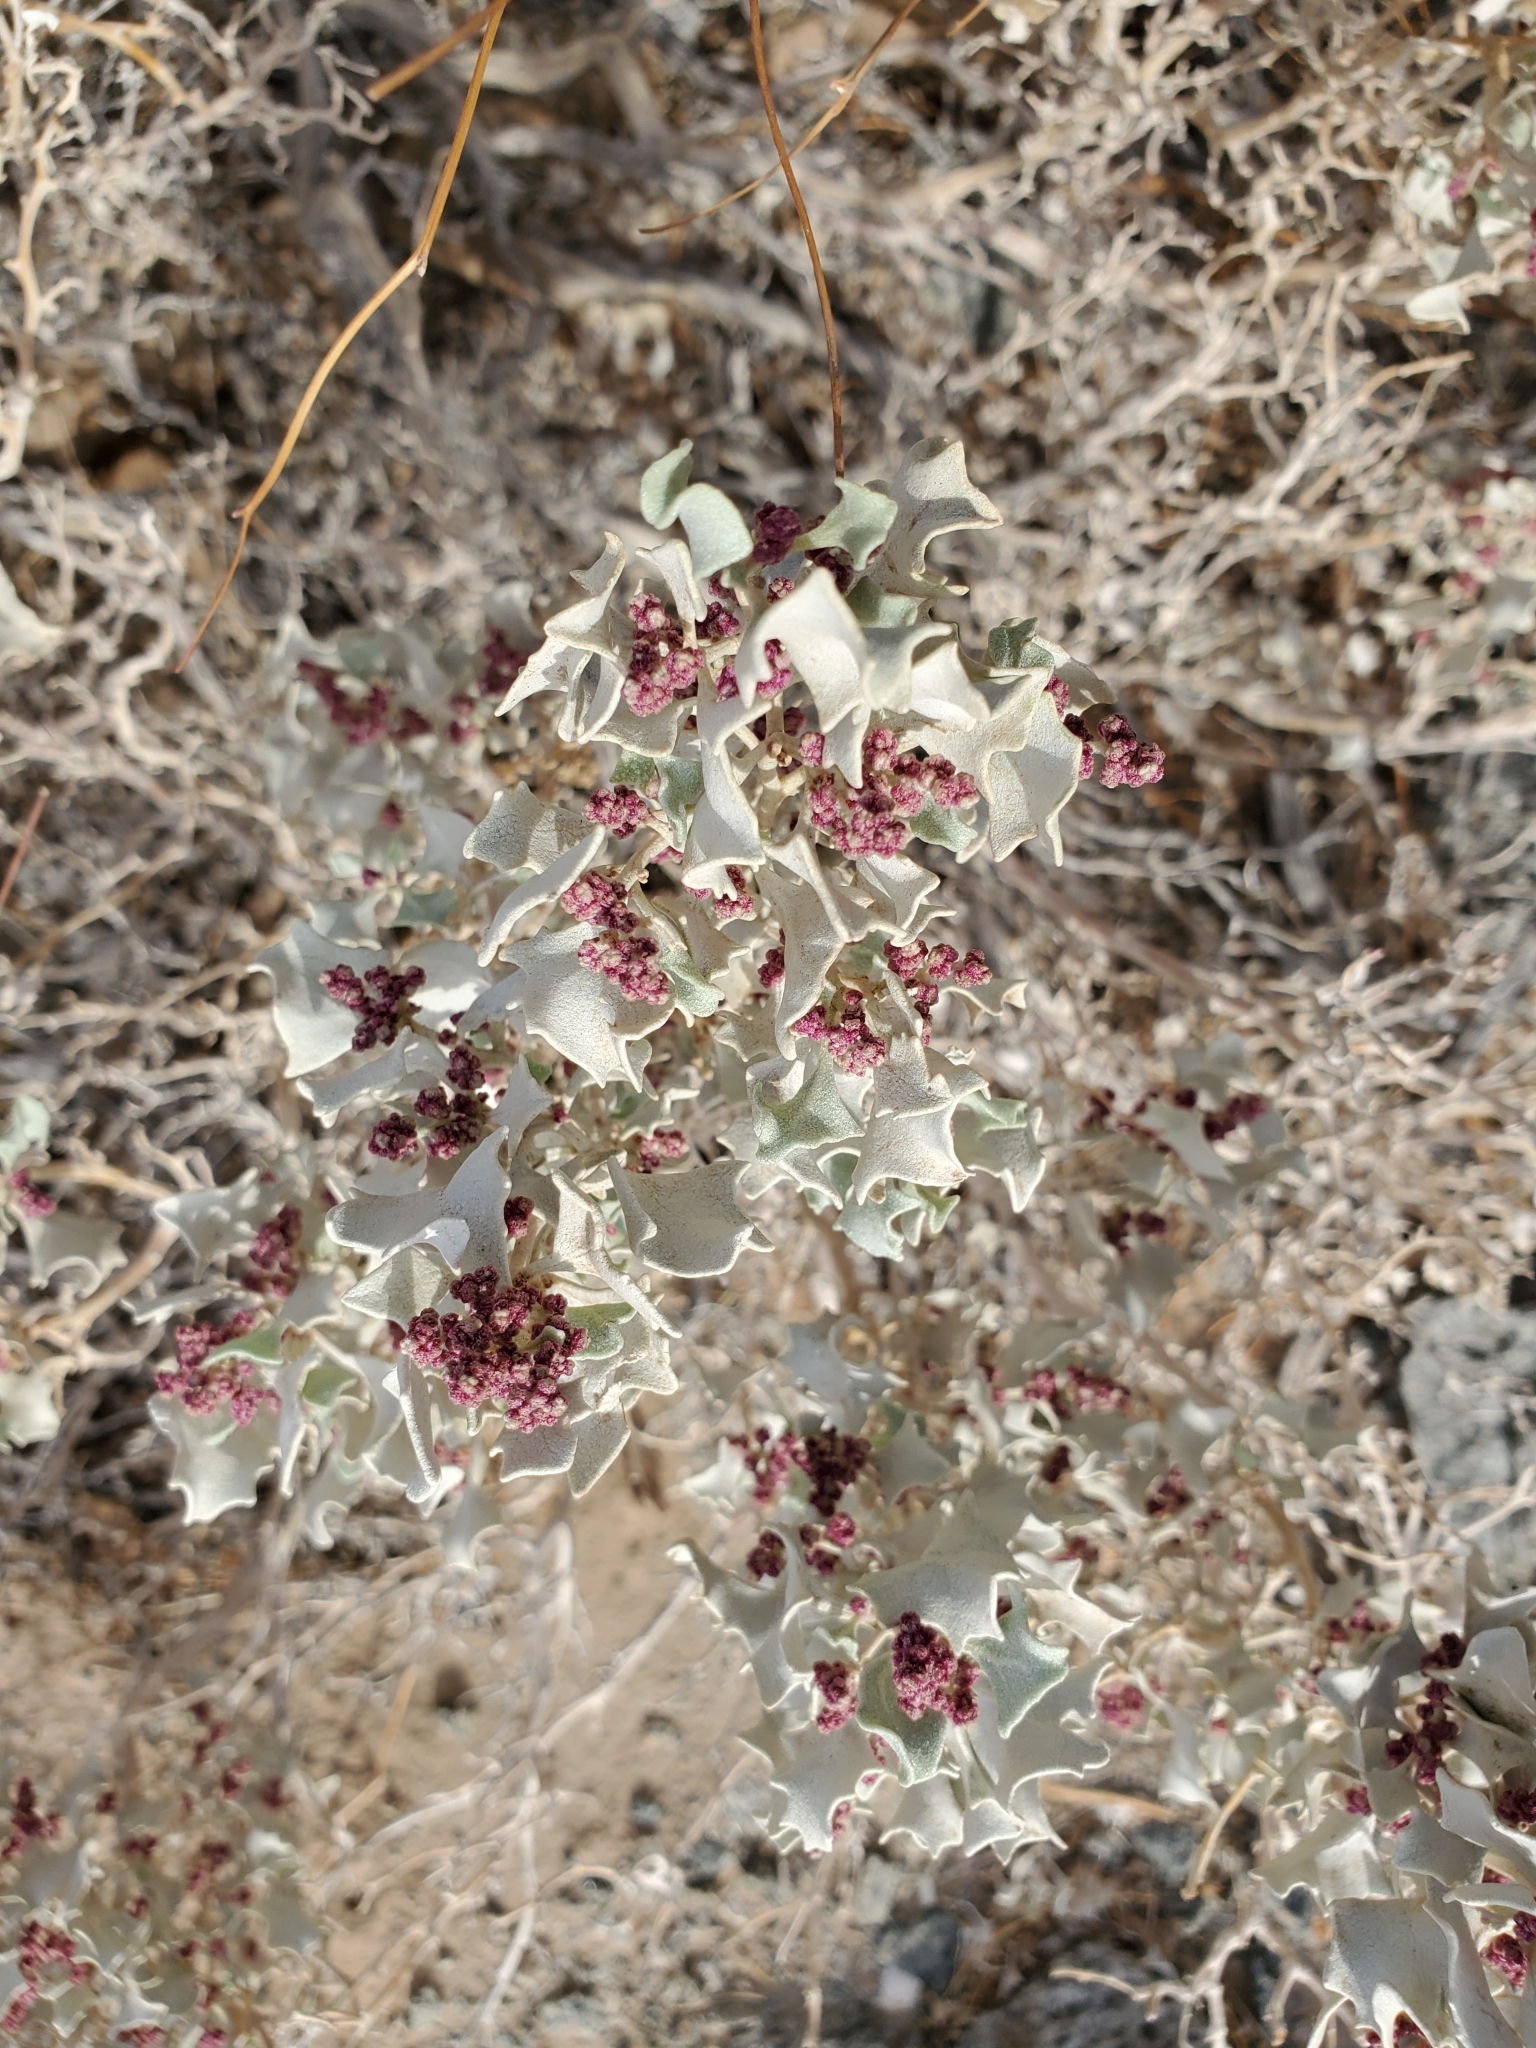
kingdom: Plantae
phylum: Tracheophyta
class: Magnoliopsida
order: Caryophyllales
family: Amaranthaceae
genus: Atriplex
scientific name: Atriplex hymenelytra
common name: Desert-holly
